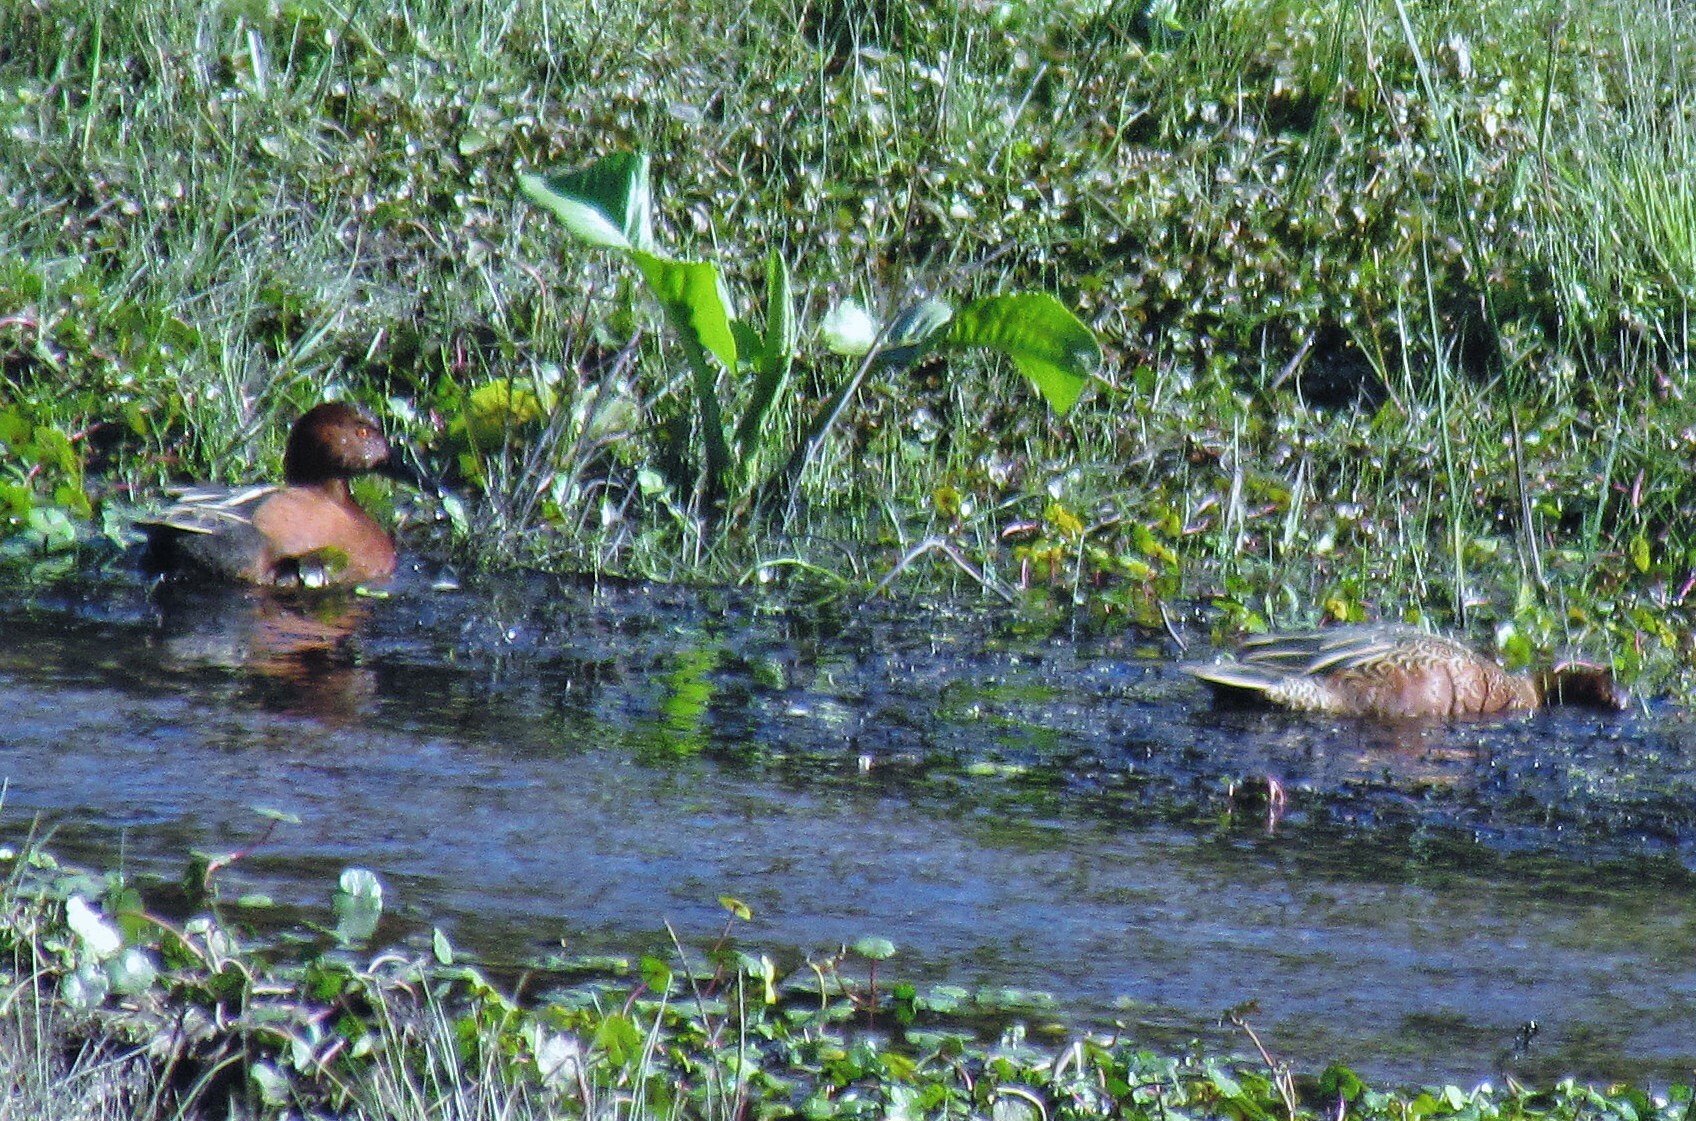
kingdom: Animalia
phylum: Chordata
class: Aves
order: Anseriformes
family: Anatidae
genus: Spatula
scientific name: Spatula cyanoptera
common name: Cinnamon teal
